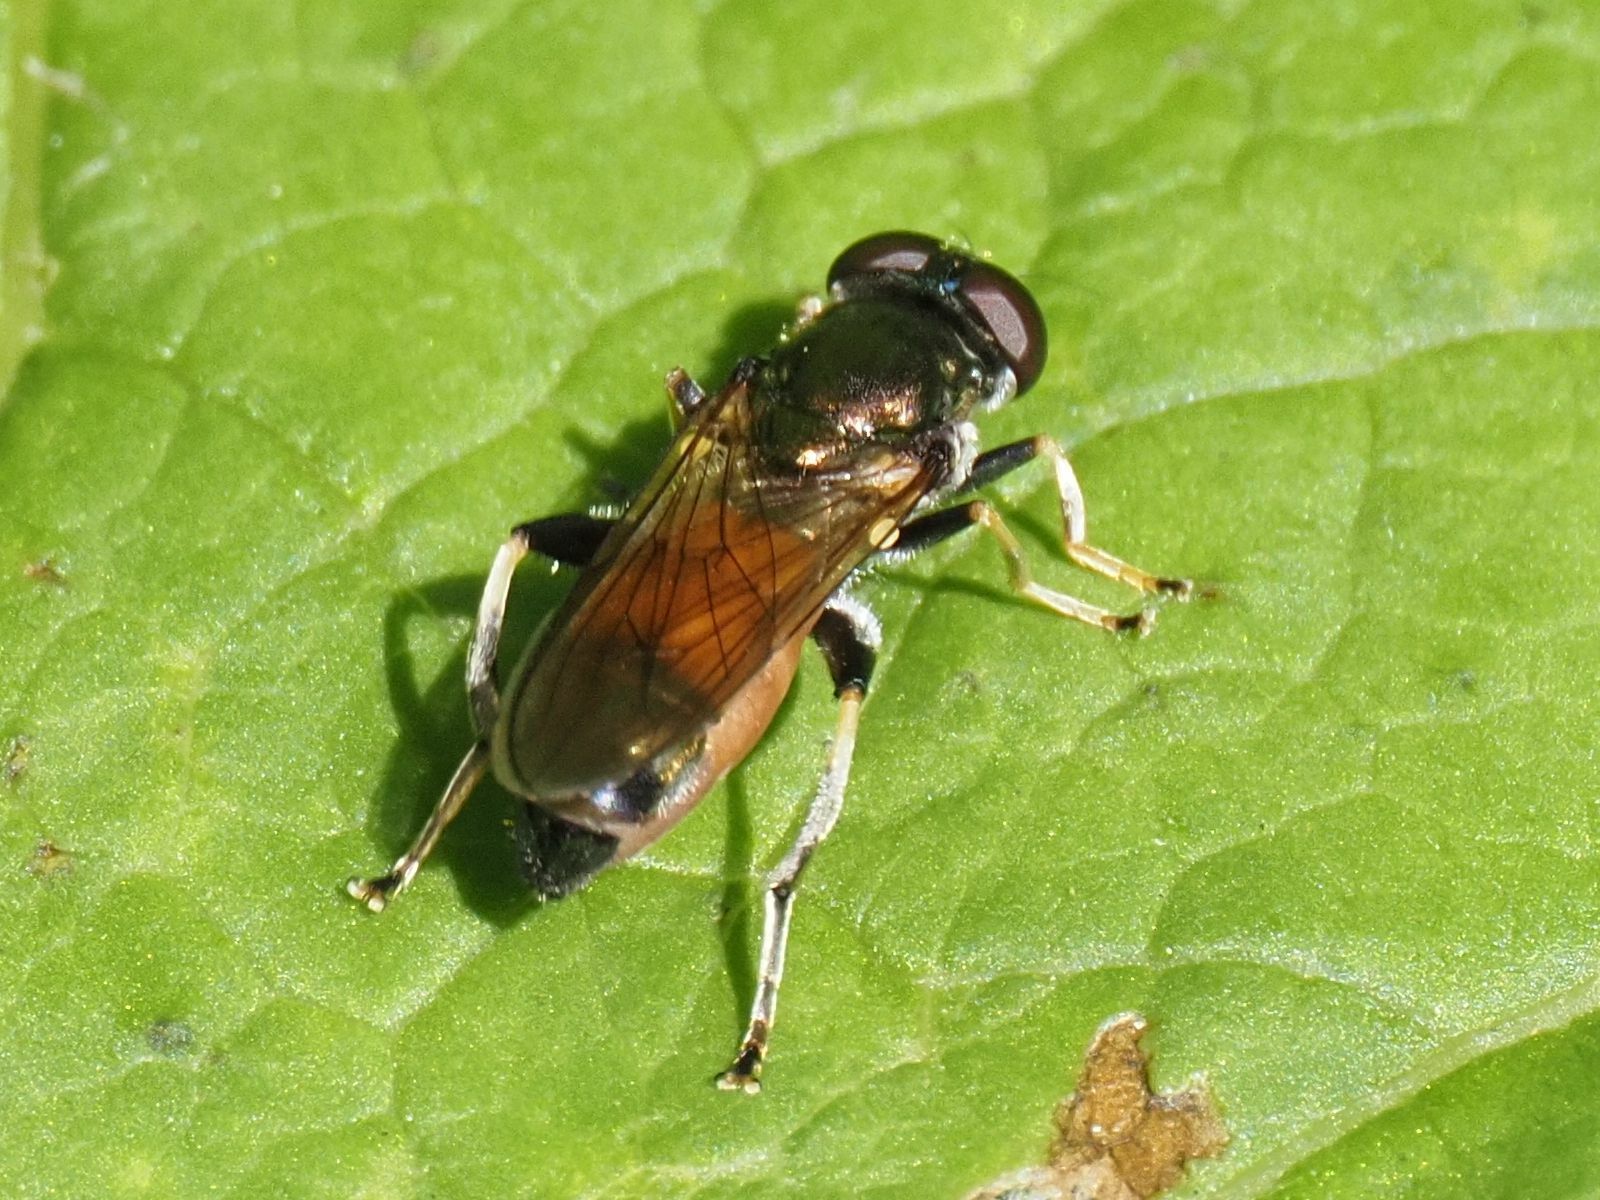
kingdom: Animalia
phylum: Arthropoda
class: Insecta
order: Diptera
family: Syrphidae
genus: Xylota
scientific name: Xylota segnis
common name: Brown-toed forest fly
